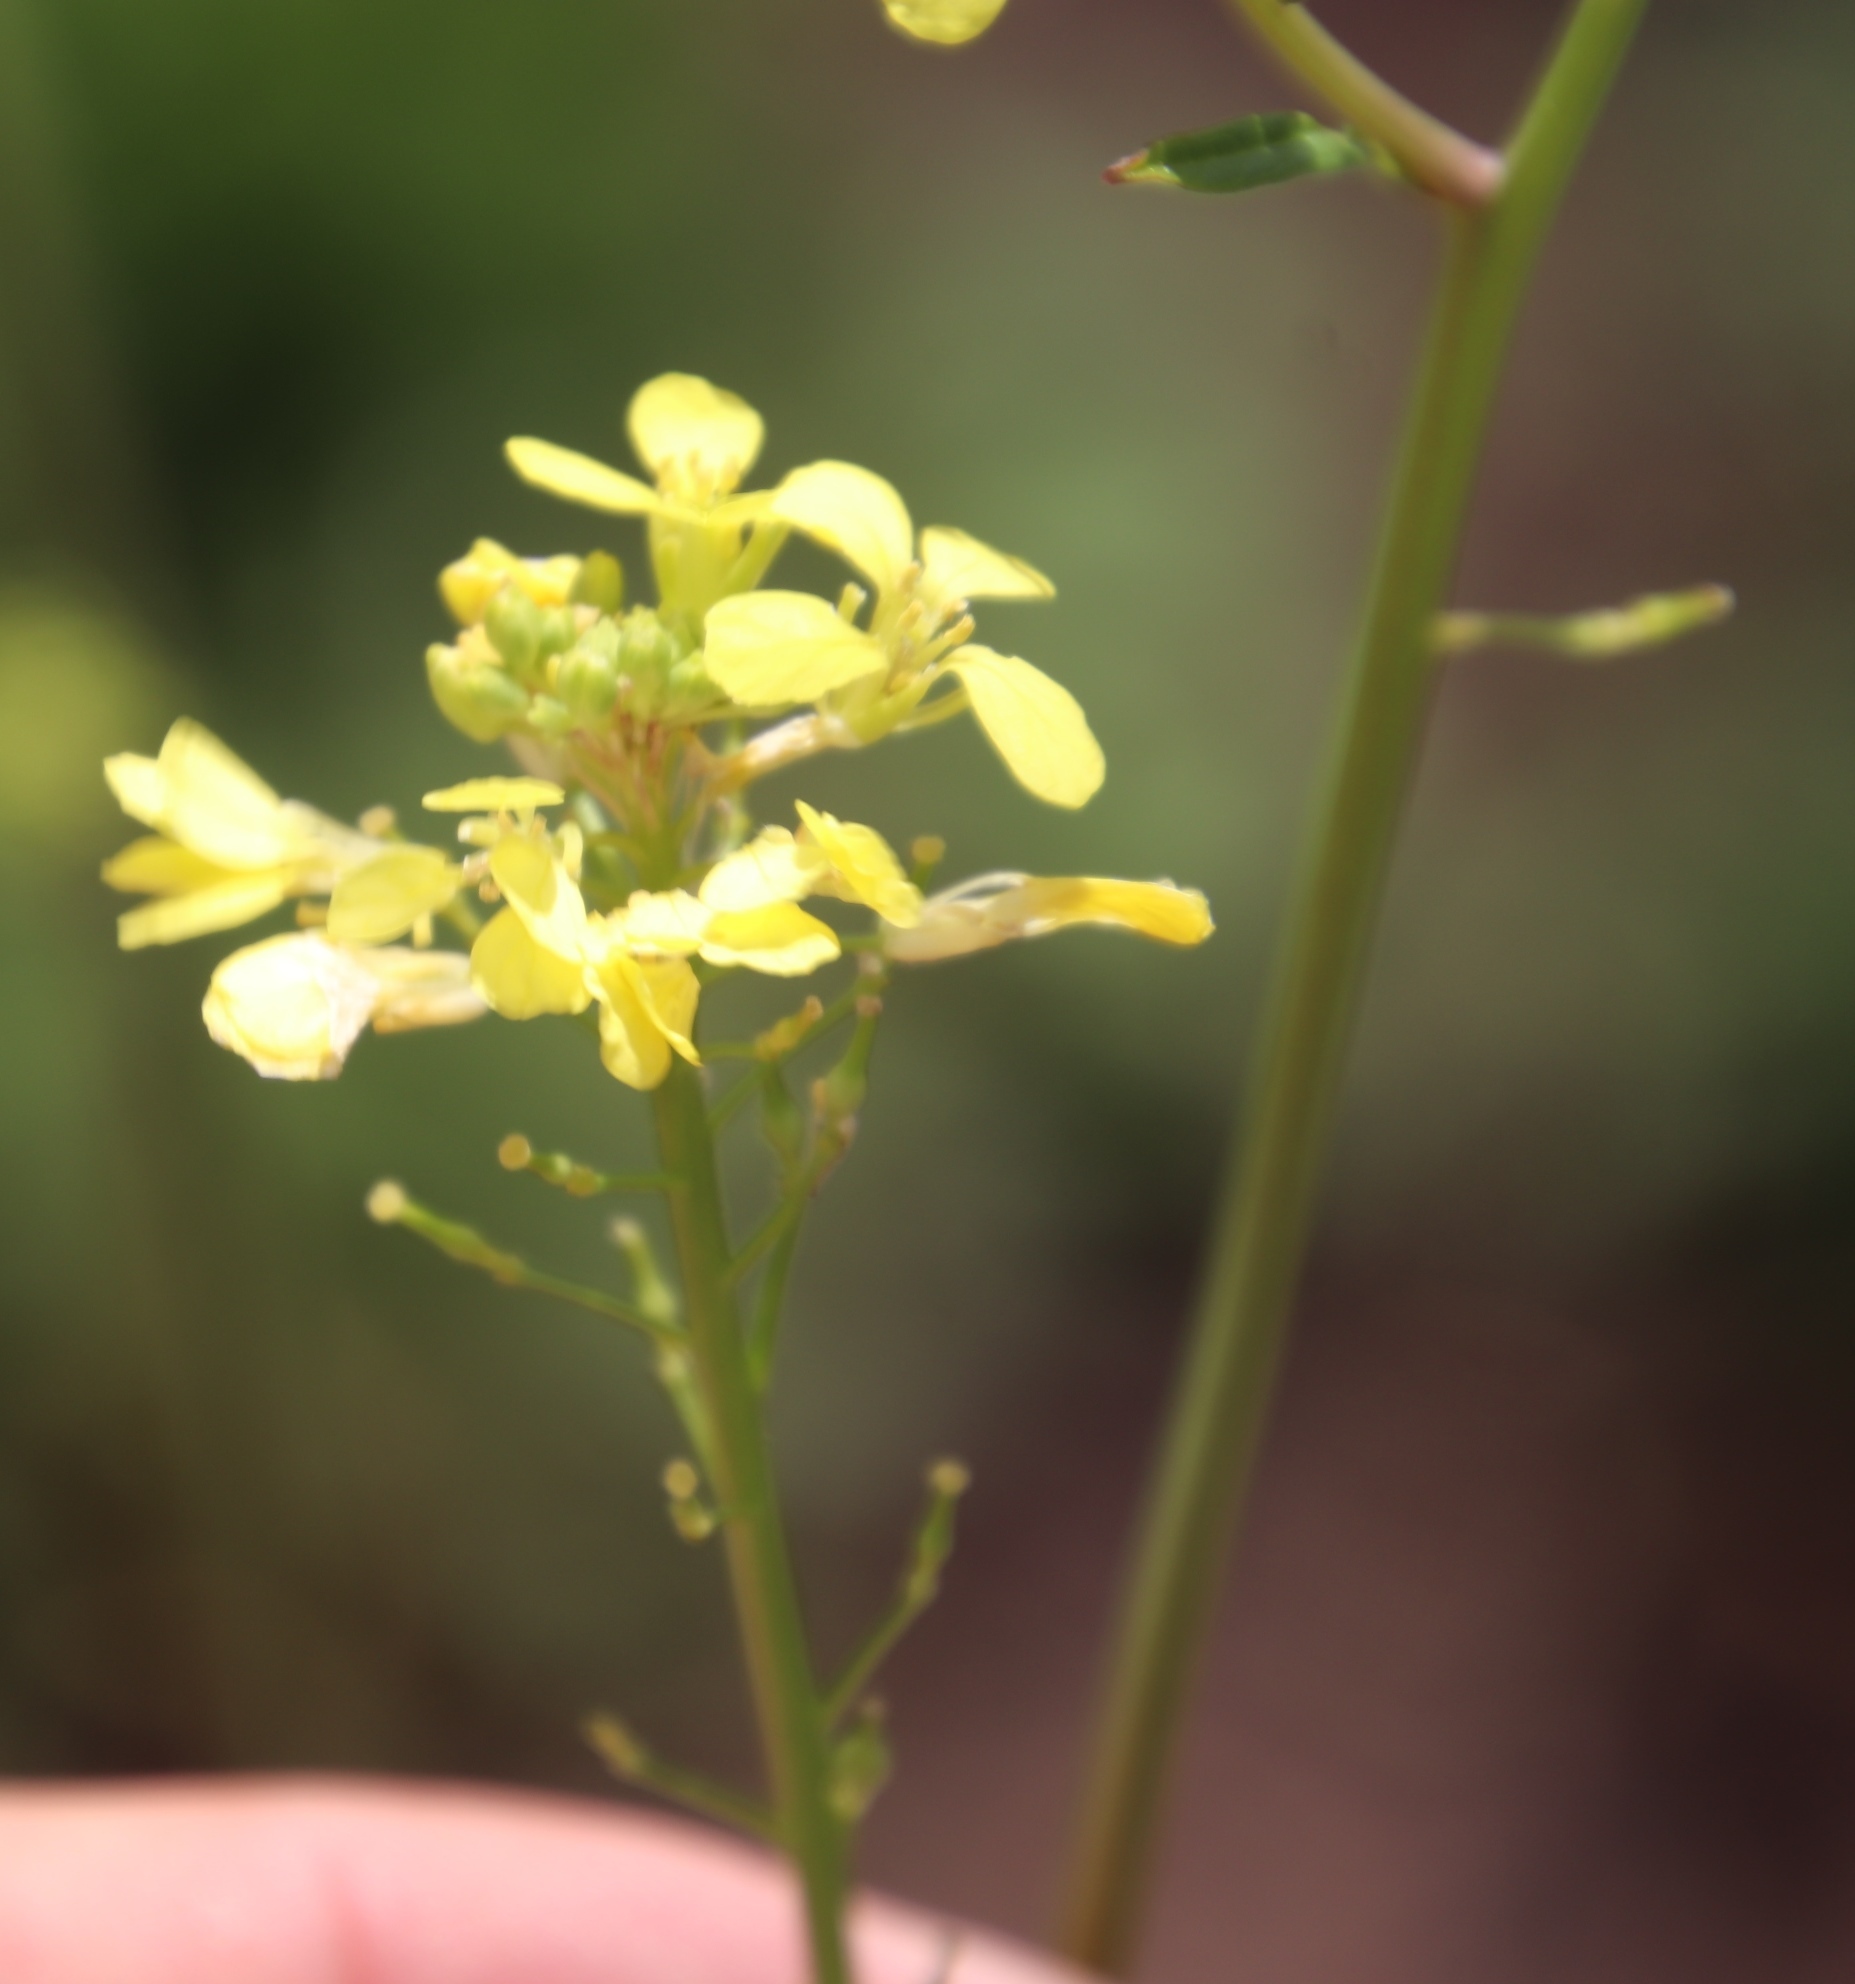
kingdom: Plantae
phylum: Tracheophyta
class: Magnoliopsida
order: Brassicales
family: Brassicaceae
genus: Rapistrum
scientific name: Rapistrum rugosum
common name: Annual bastardcabbage
